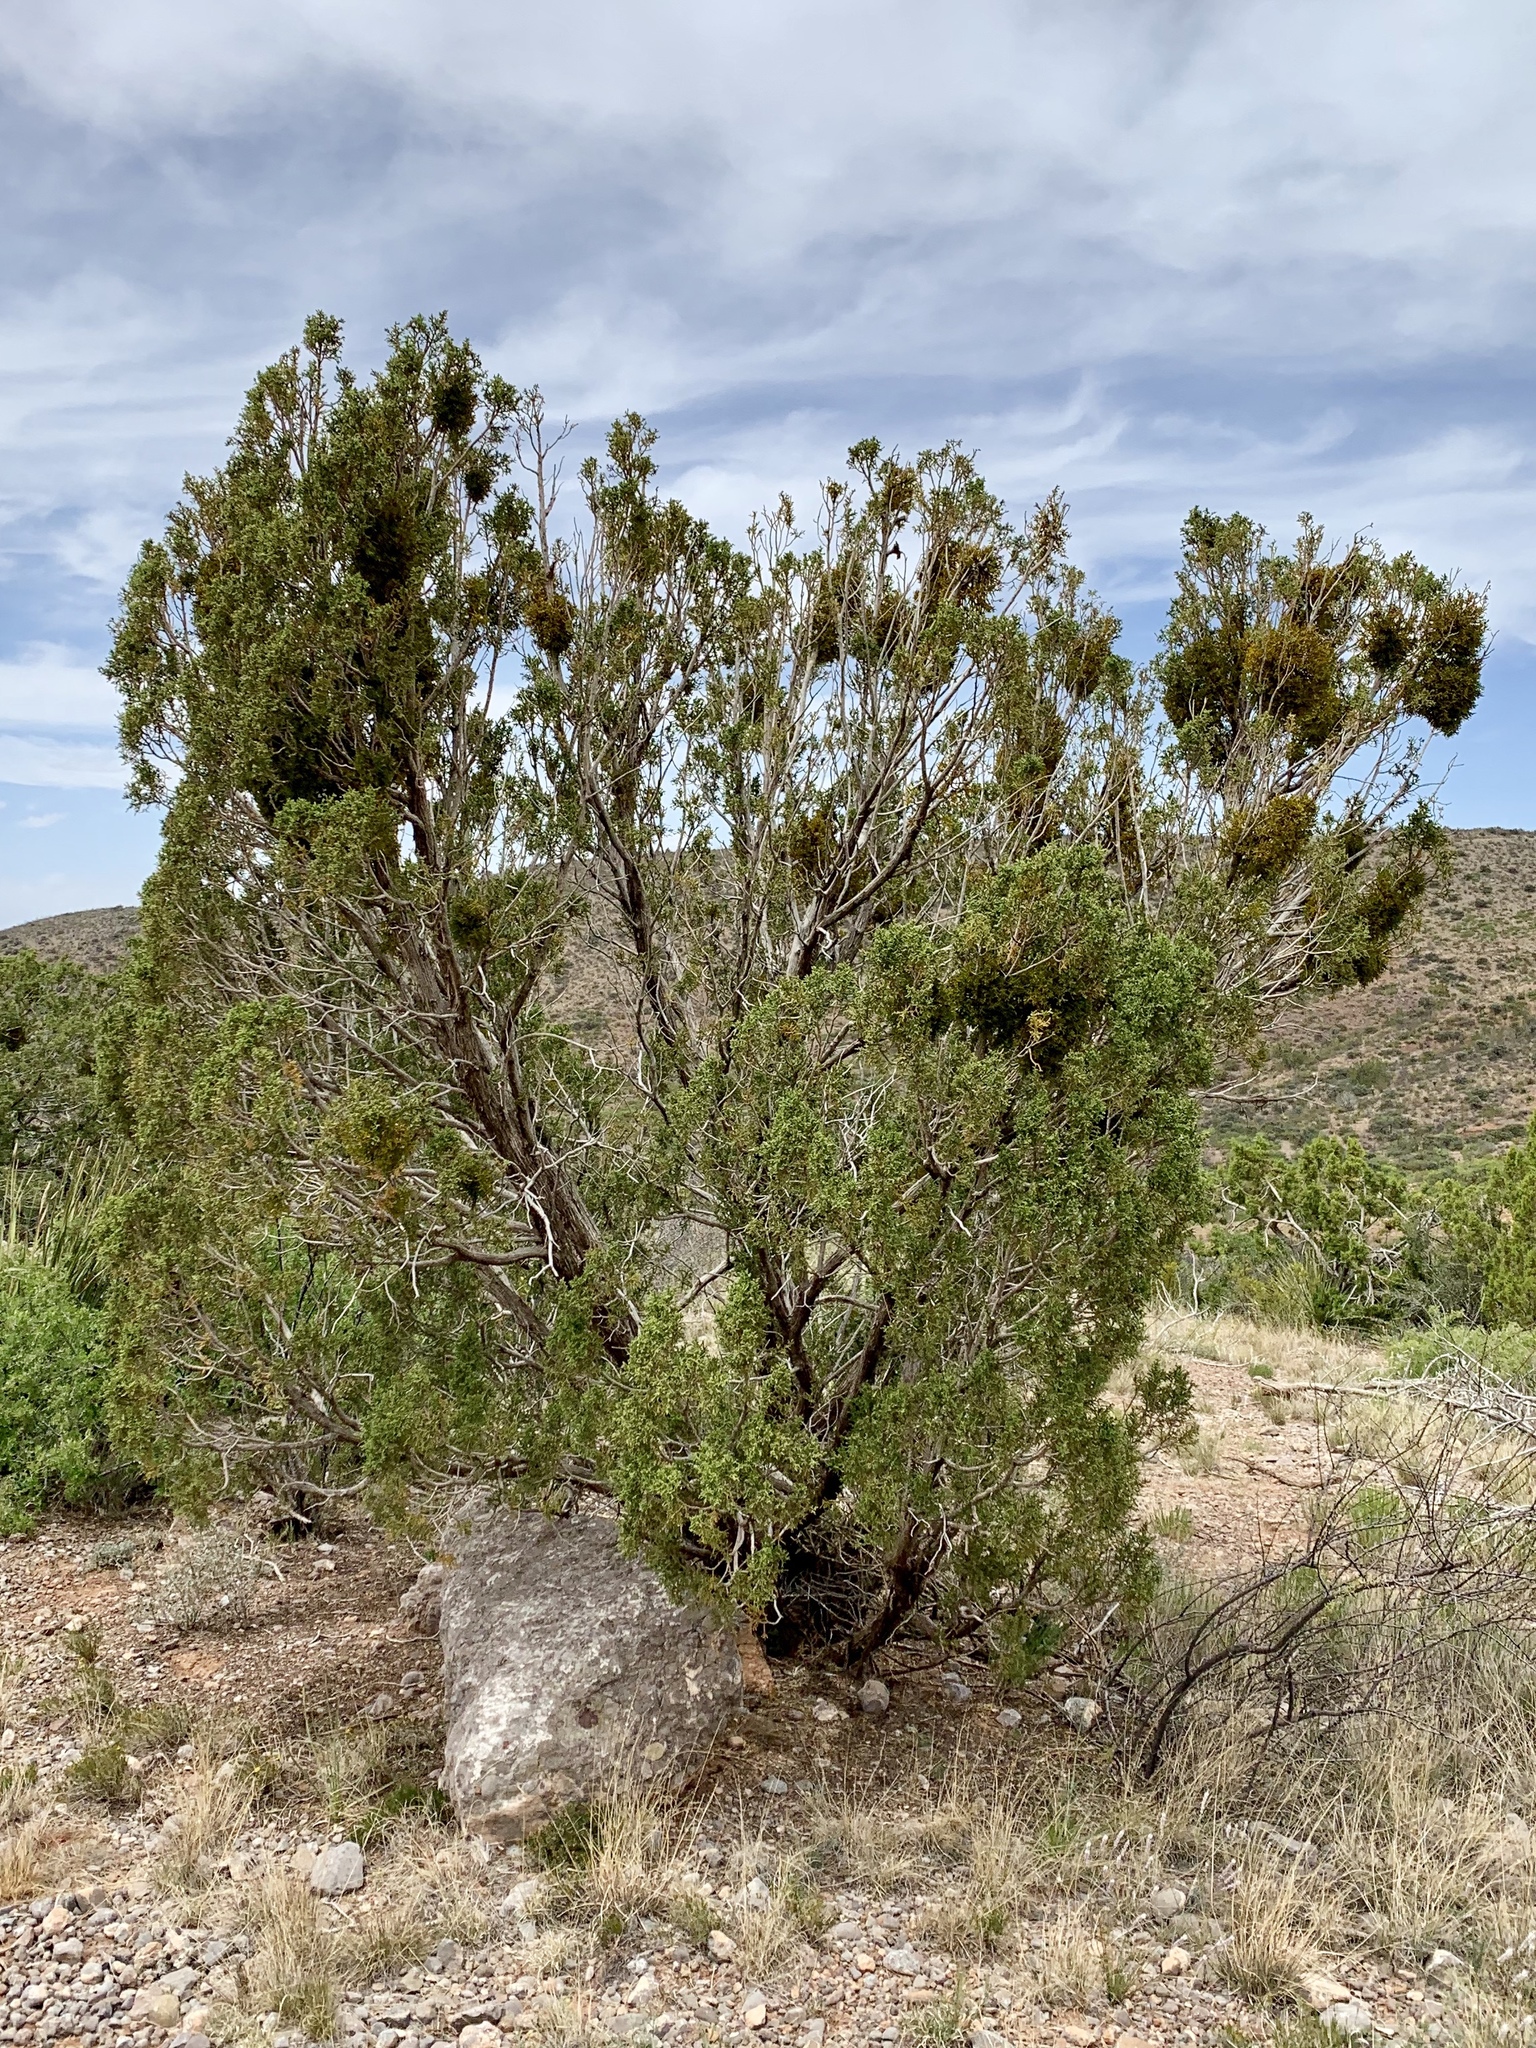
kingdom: Plantae
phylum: Tracheophyta
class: Pinopsida
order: Pinales
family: Cupressaceae
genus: Juniperus
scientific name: Juniperus monosperma
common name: One-seed juniper
